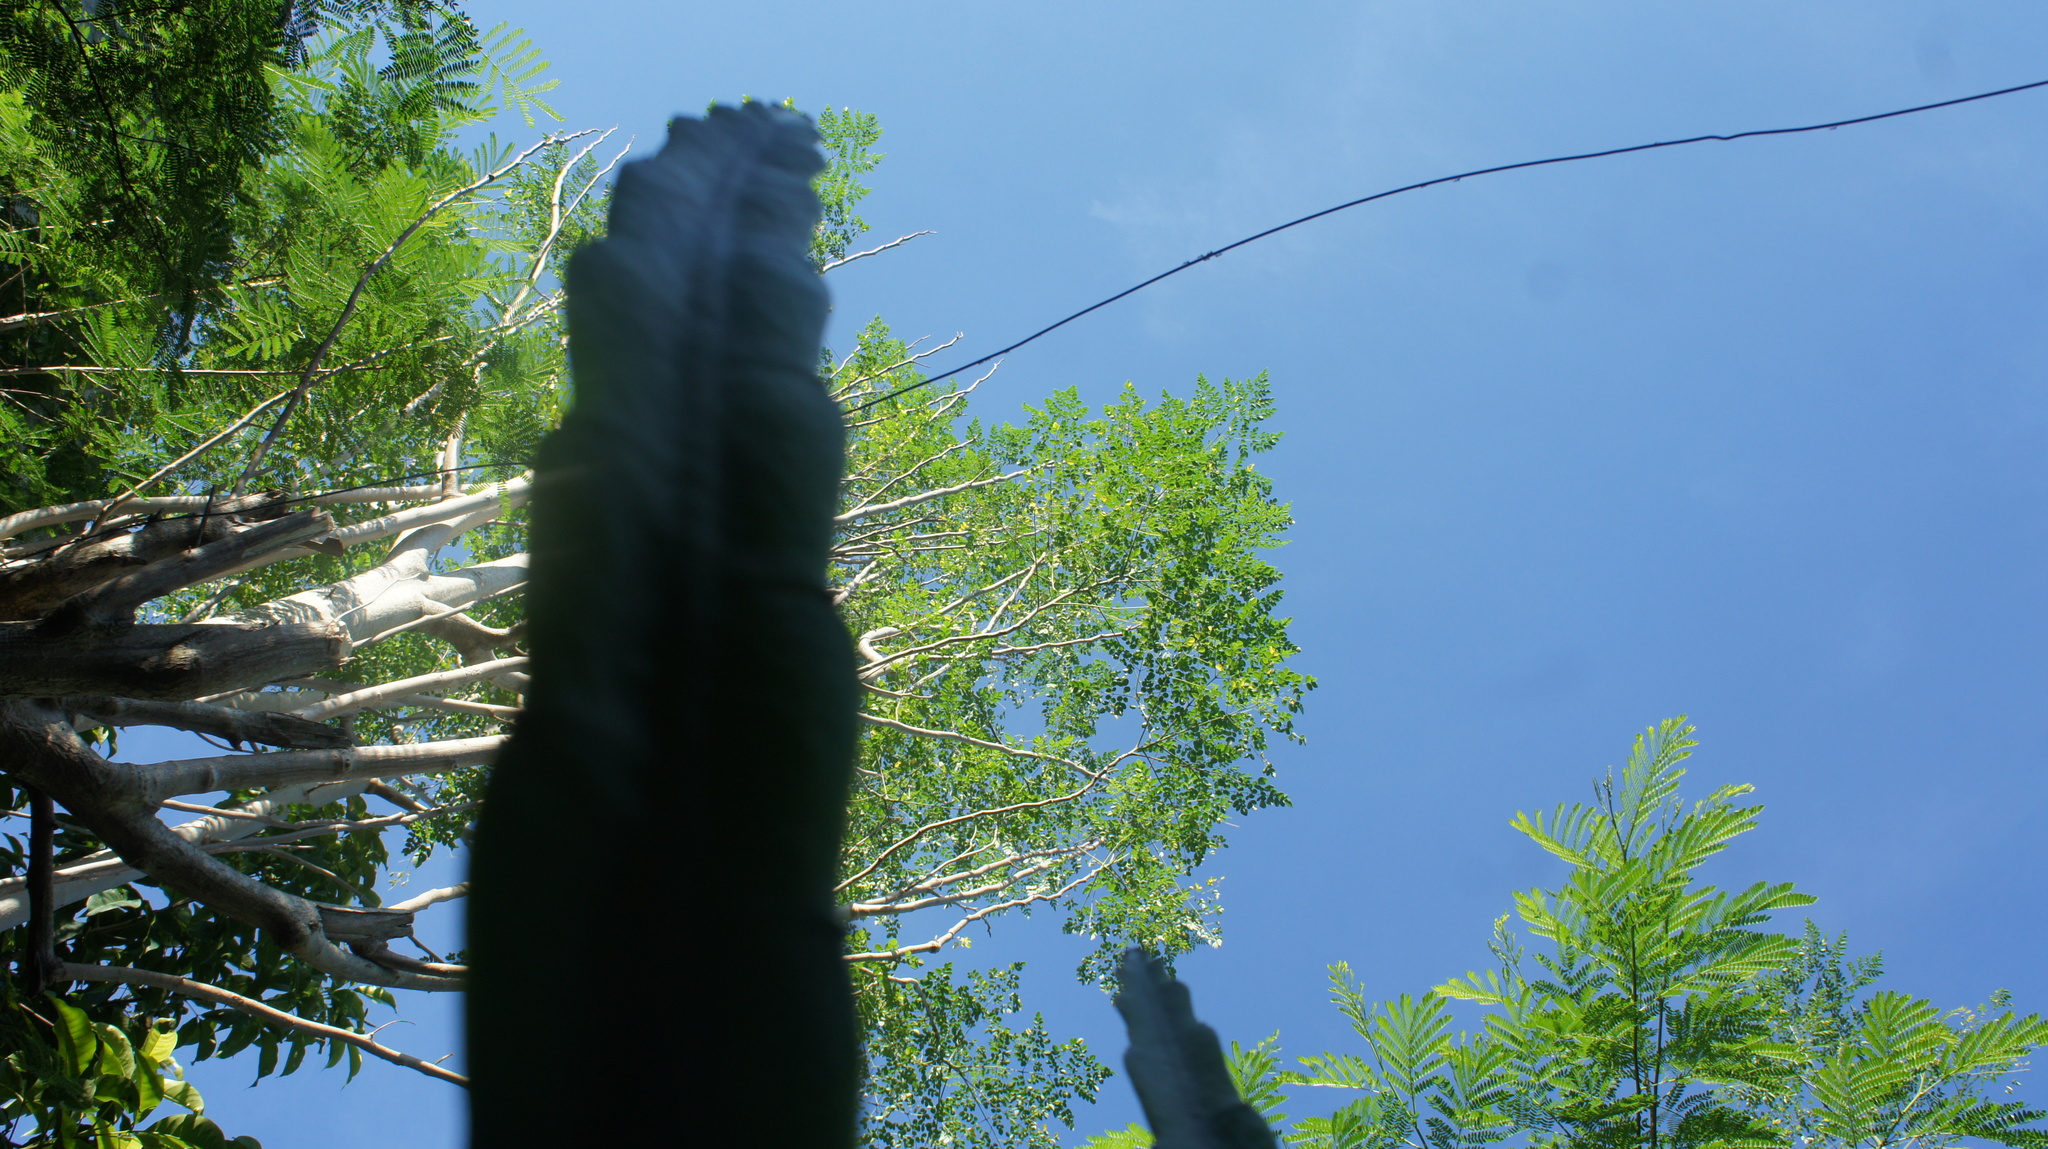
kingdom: Plantae
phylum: Tracheophyta
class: Magnoliopsida
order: Brassicales
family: Moringaceae
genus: Moringa
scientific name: Moringa oleifera
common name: Horseradish-tree
